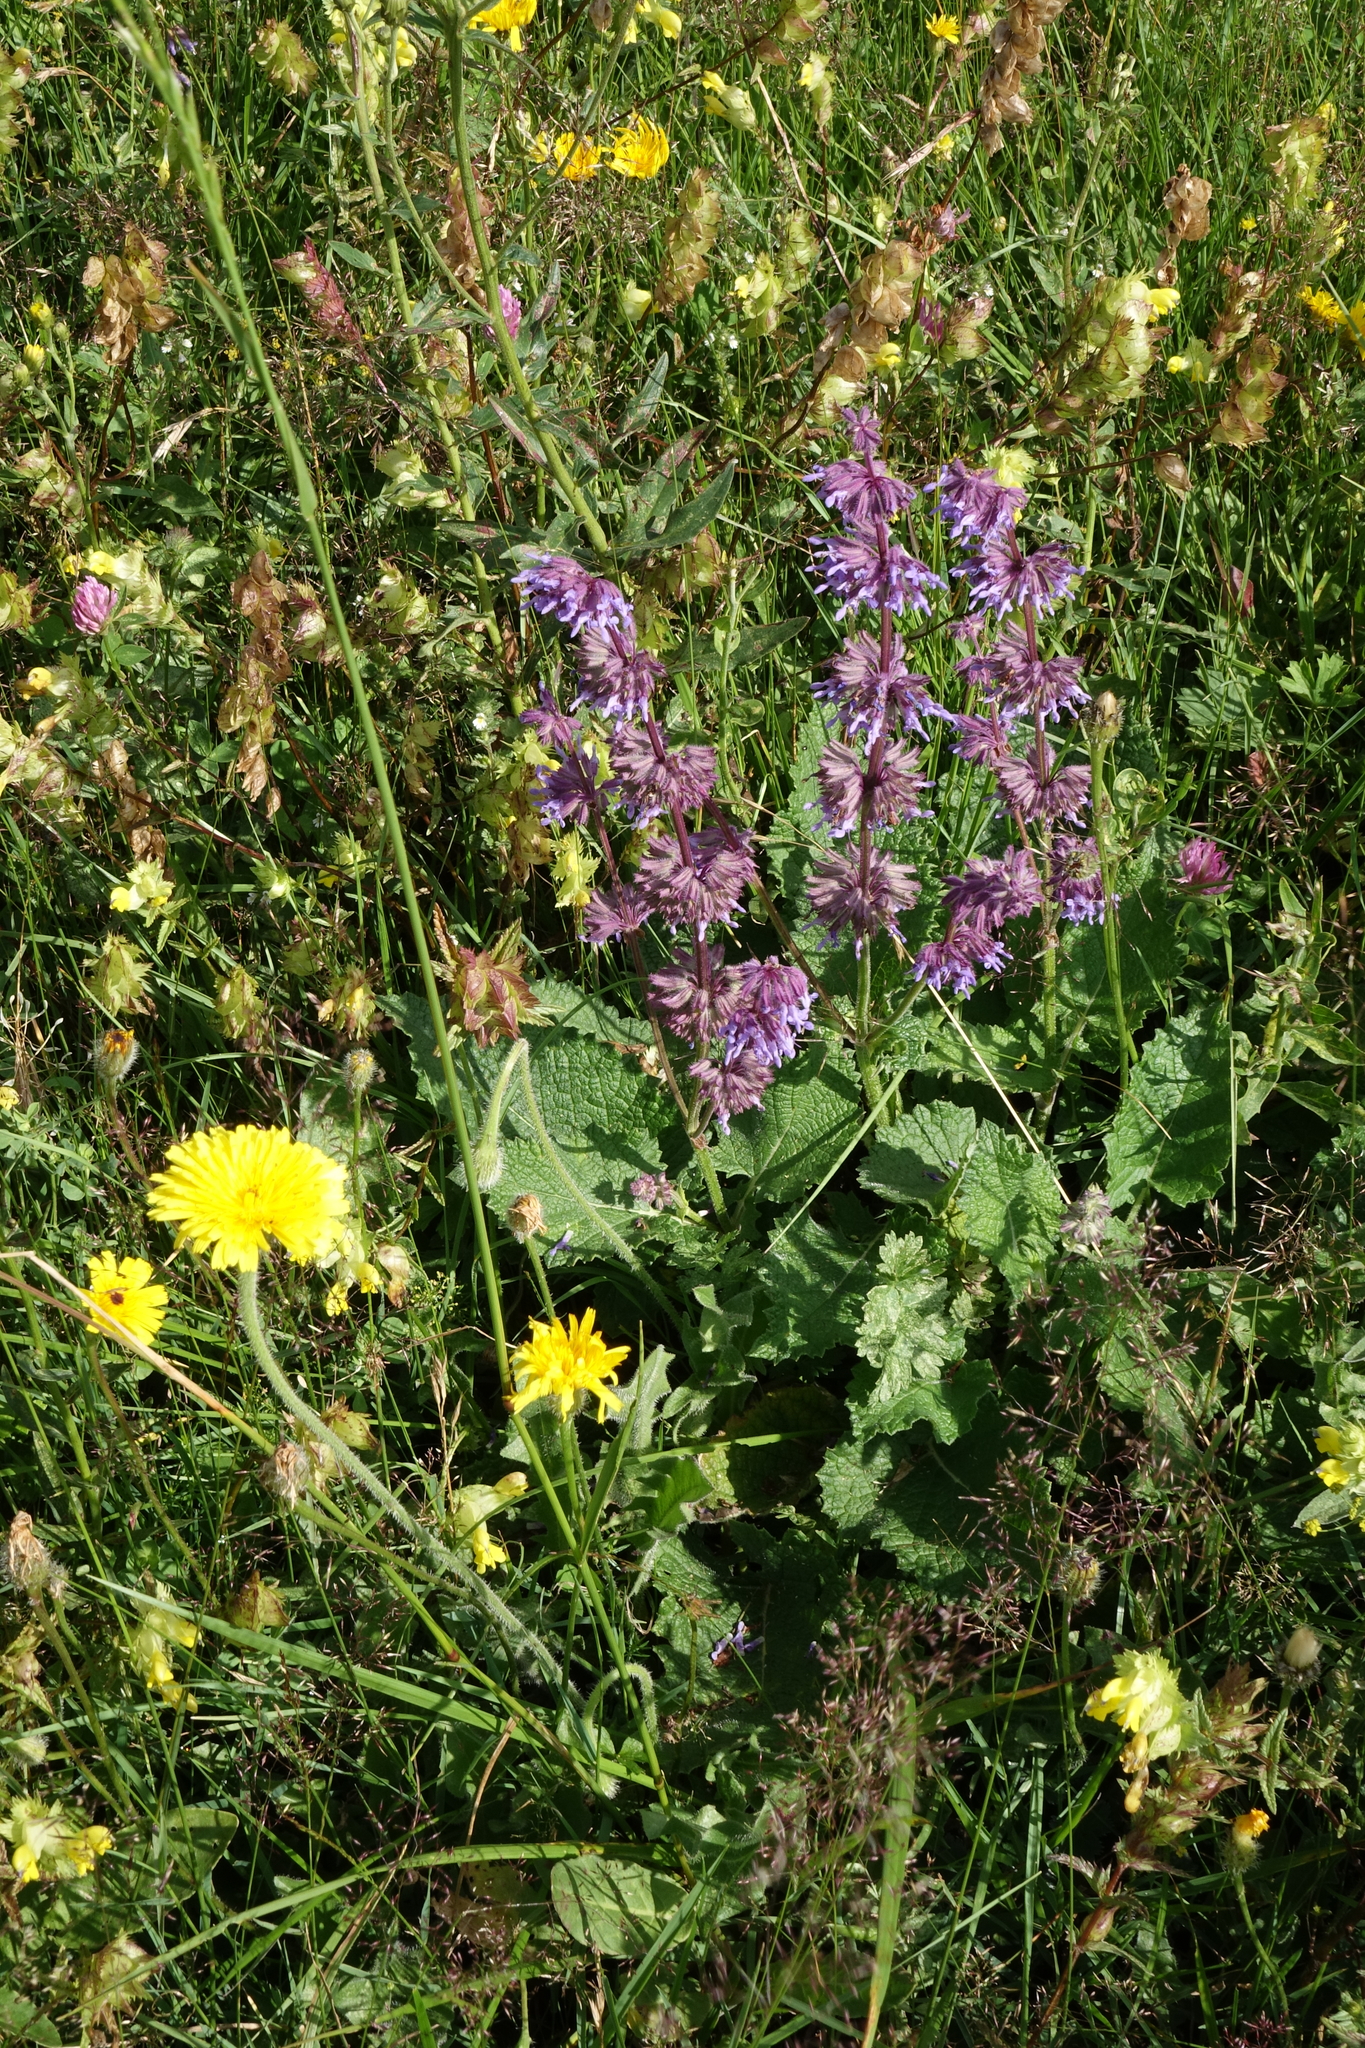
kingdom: Plantae
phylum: Tracheophyta
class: Magnoliopsida
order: Lamiales
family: Lamiaceae
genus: Salvia
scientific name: Salvia verticillata
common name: Whorled clary
